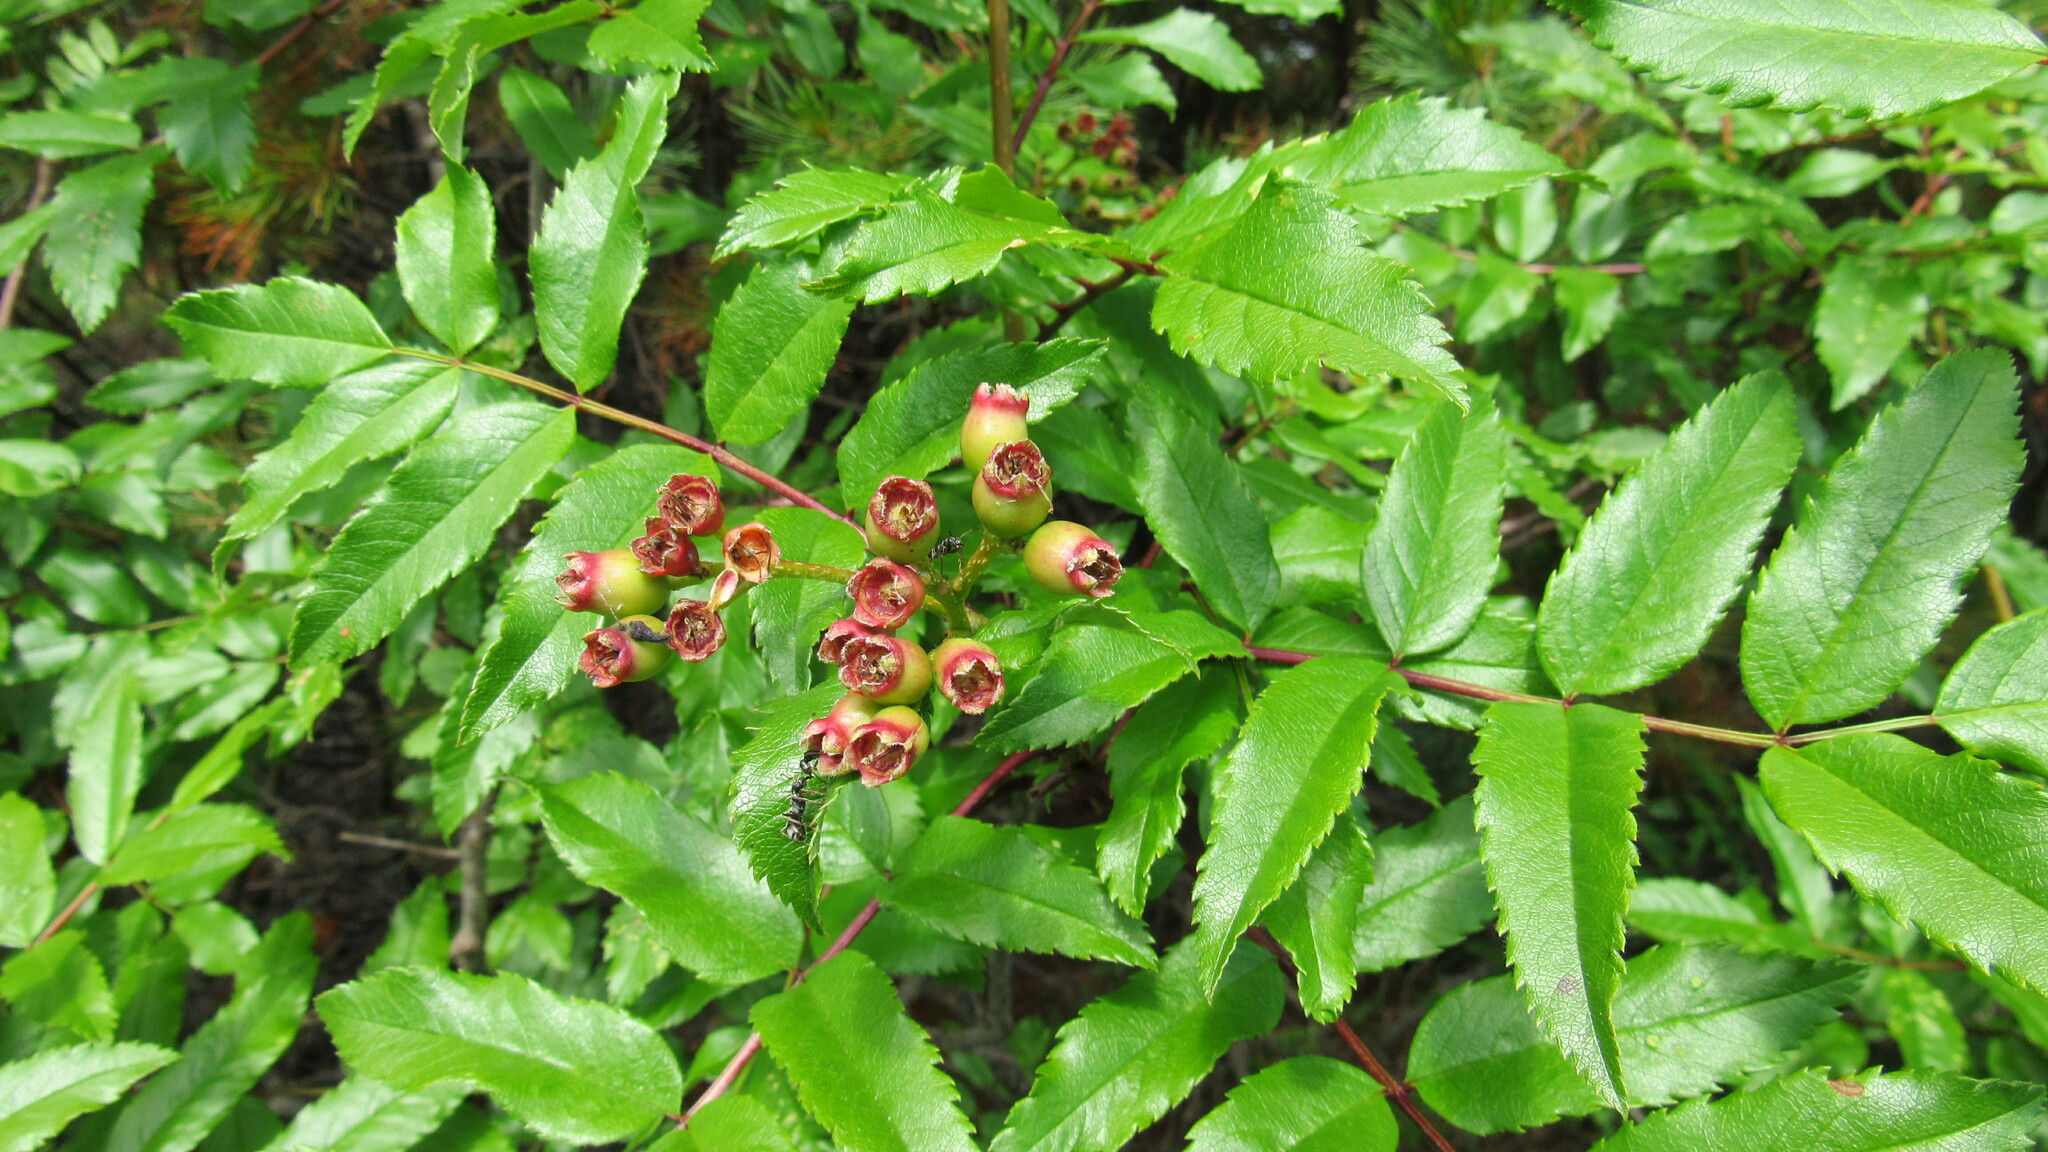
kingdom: Plantae
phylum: Tracheophyta
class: Magnoliopsida
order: Rosales
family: Rosaceae
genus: Sorbus
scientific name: Sorbus sambucifolia
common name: Siberian mountain-ash
